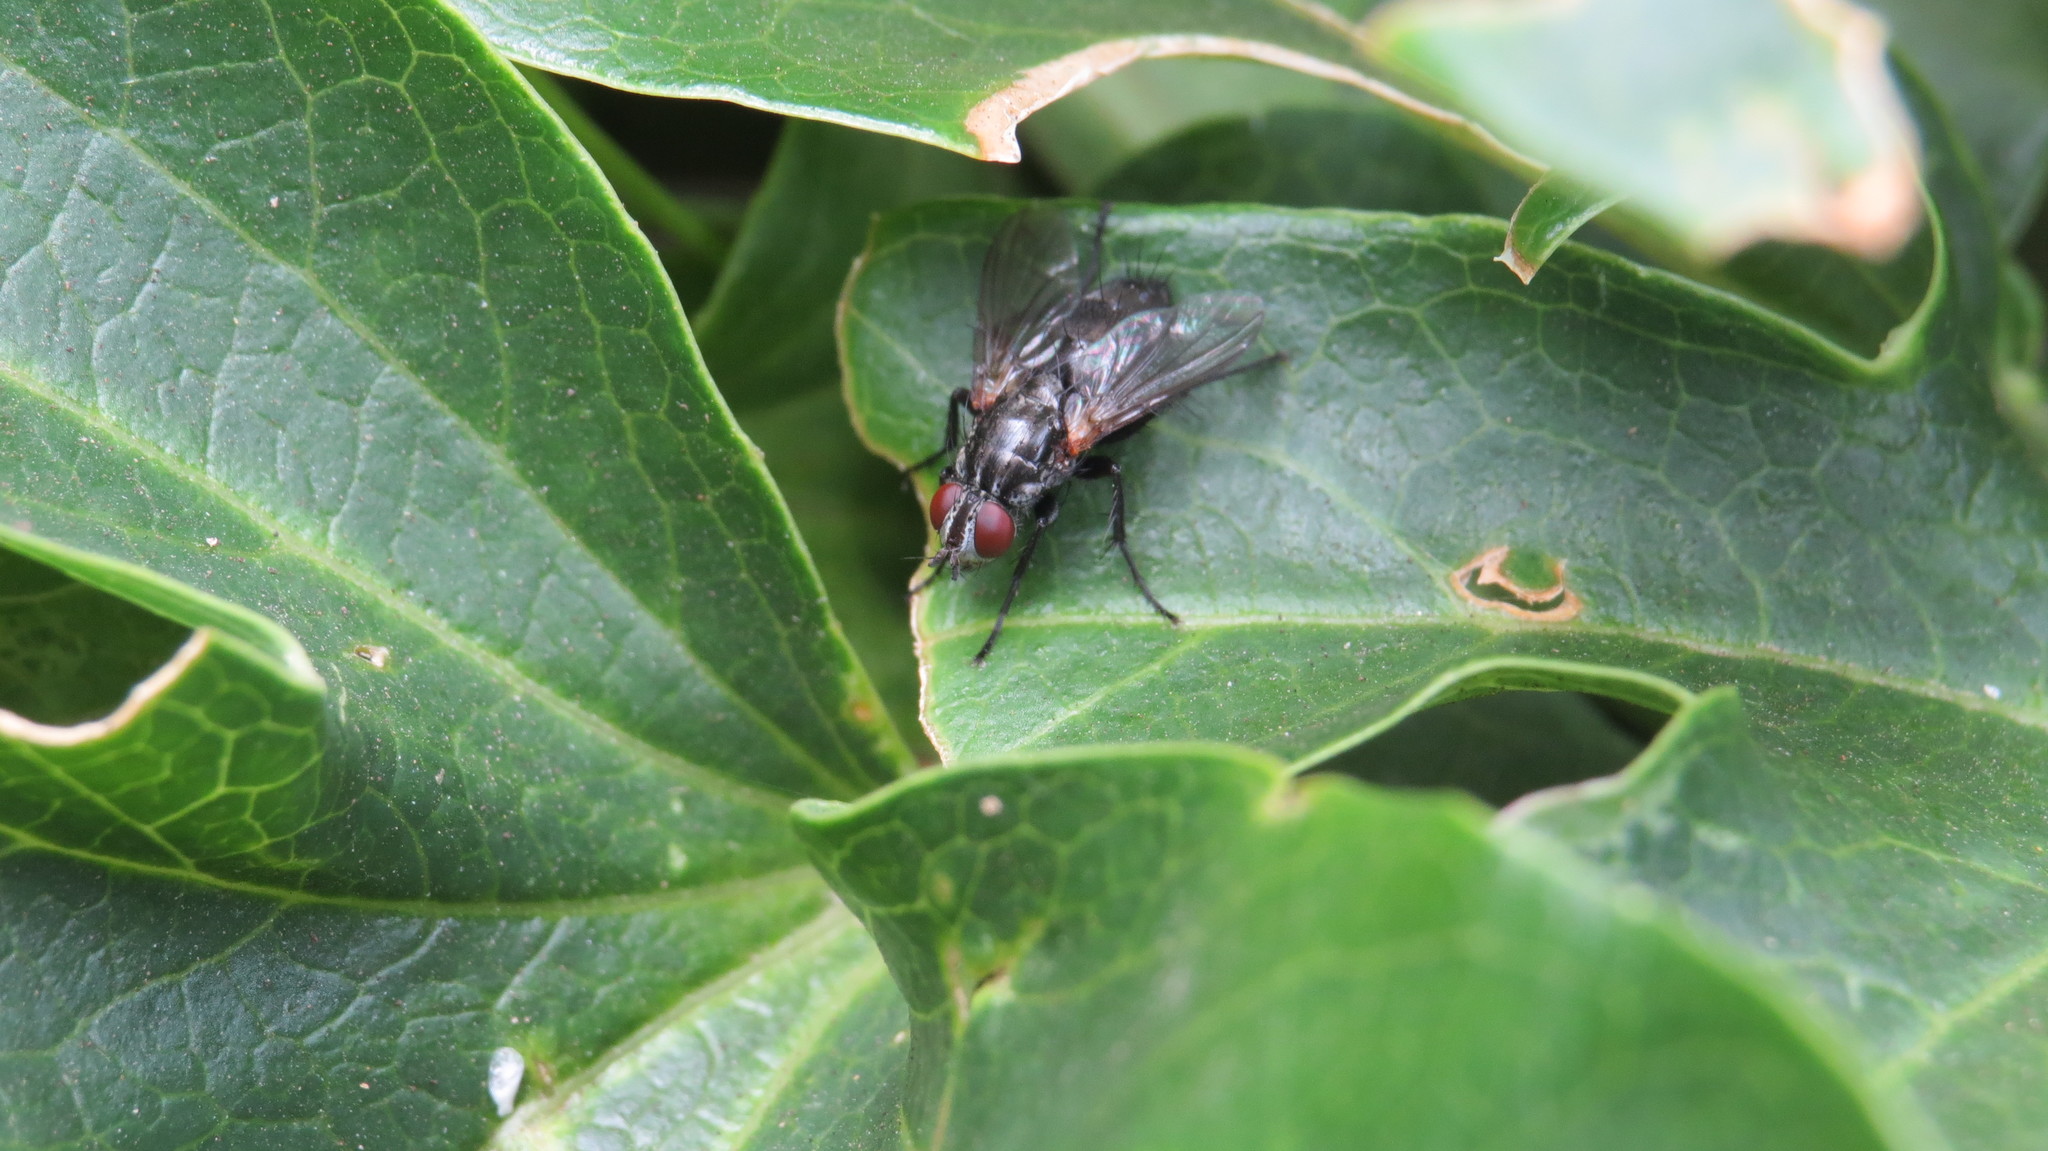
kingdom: Animalia
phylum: Arthropoda
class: Insecta
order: Diptera
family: Calliphoridae
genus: Stevenia
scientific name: Stevenia deceptoria
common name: Grizzled woodlouse-fly
